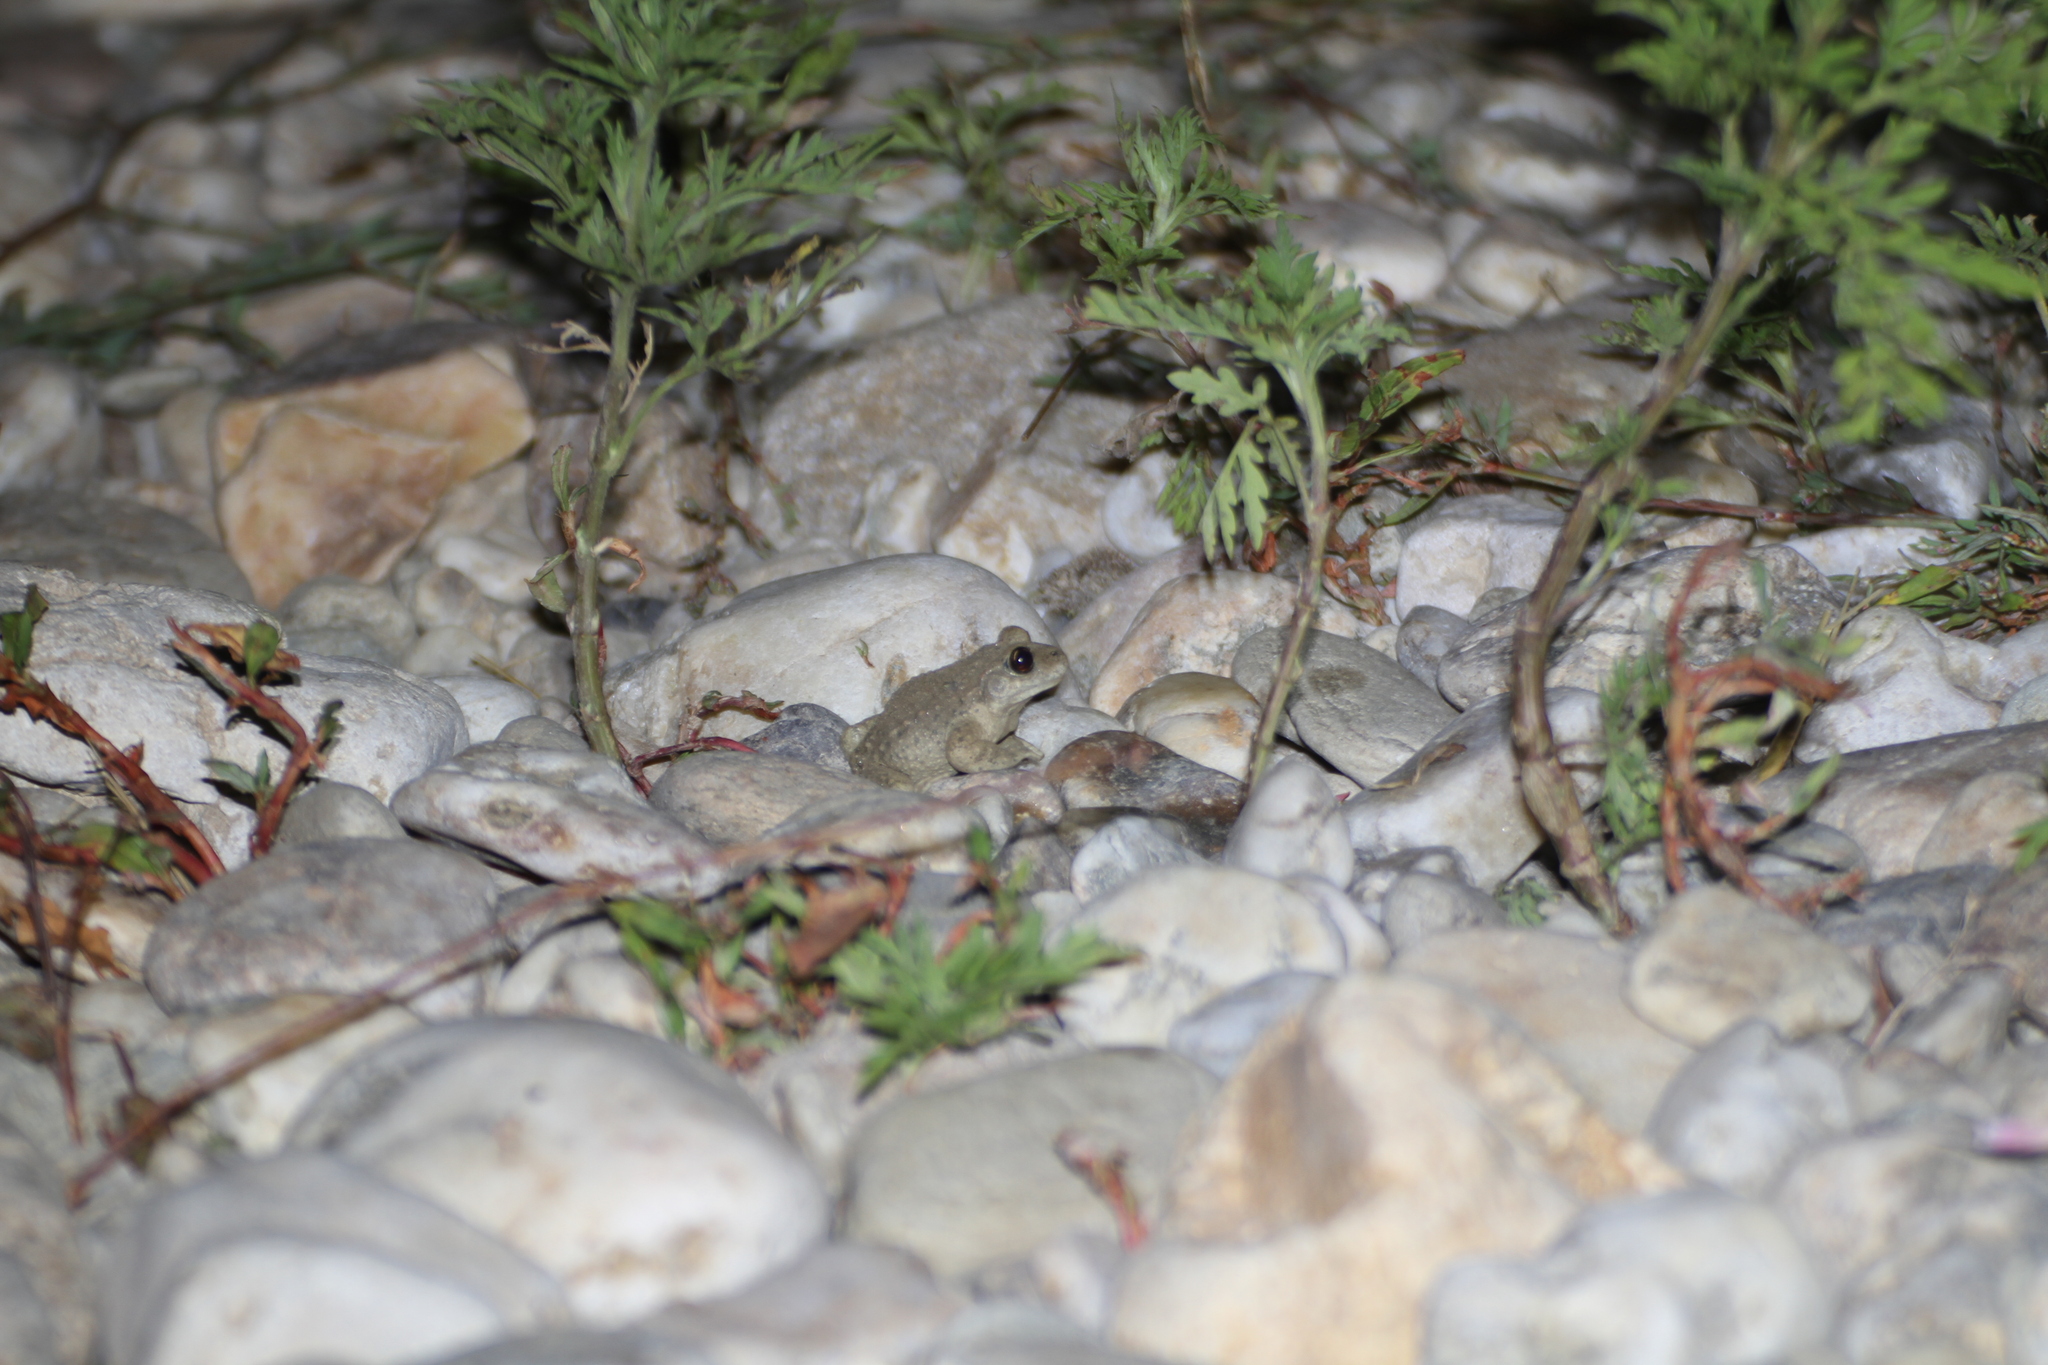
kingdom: Animalia
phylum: Chordata
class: Amphibia
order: Anura
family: Alytidae
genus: Alytes
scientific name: Alytes obstetricans
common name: Midwife toad
